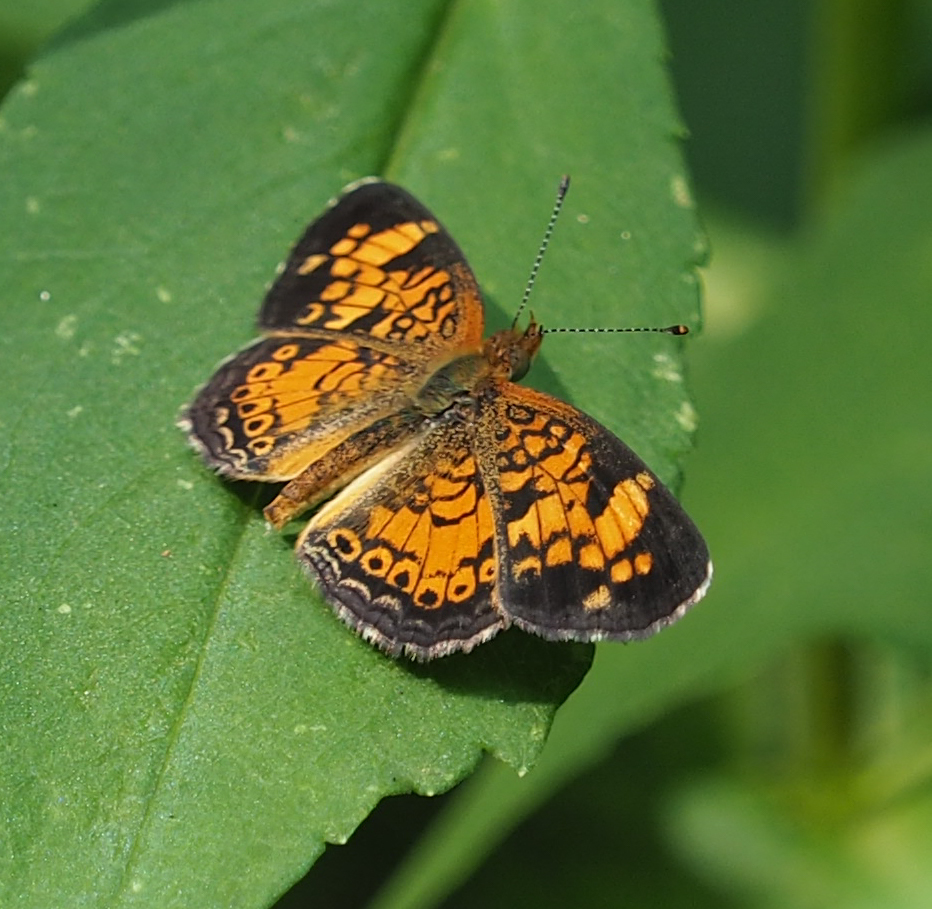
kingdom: Animalia
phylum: Arthropoda
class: Insecta
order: Lepidoptera
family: Nymphalidae
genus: Phyciodes
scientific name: Phyciodes tharos
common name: Pearl crescent
